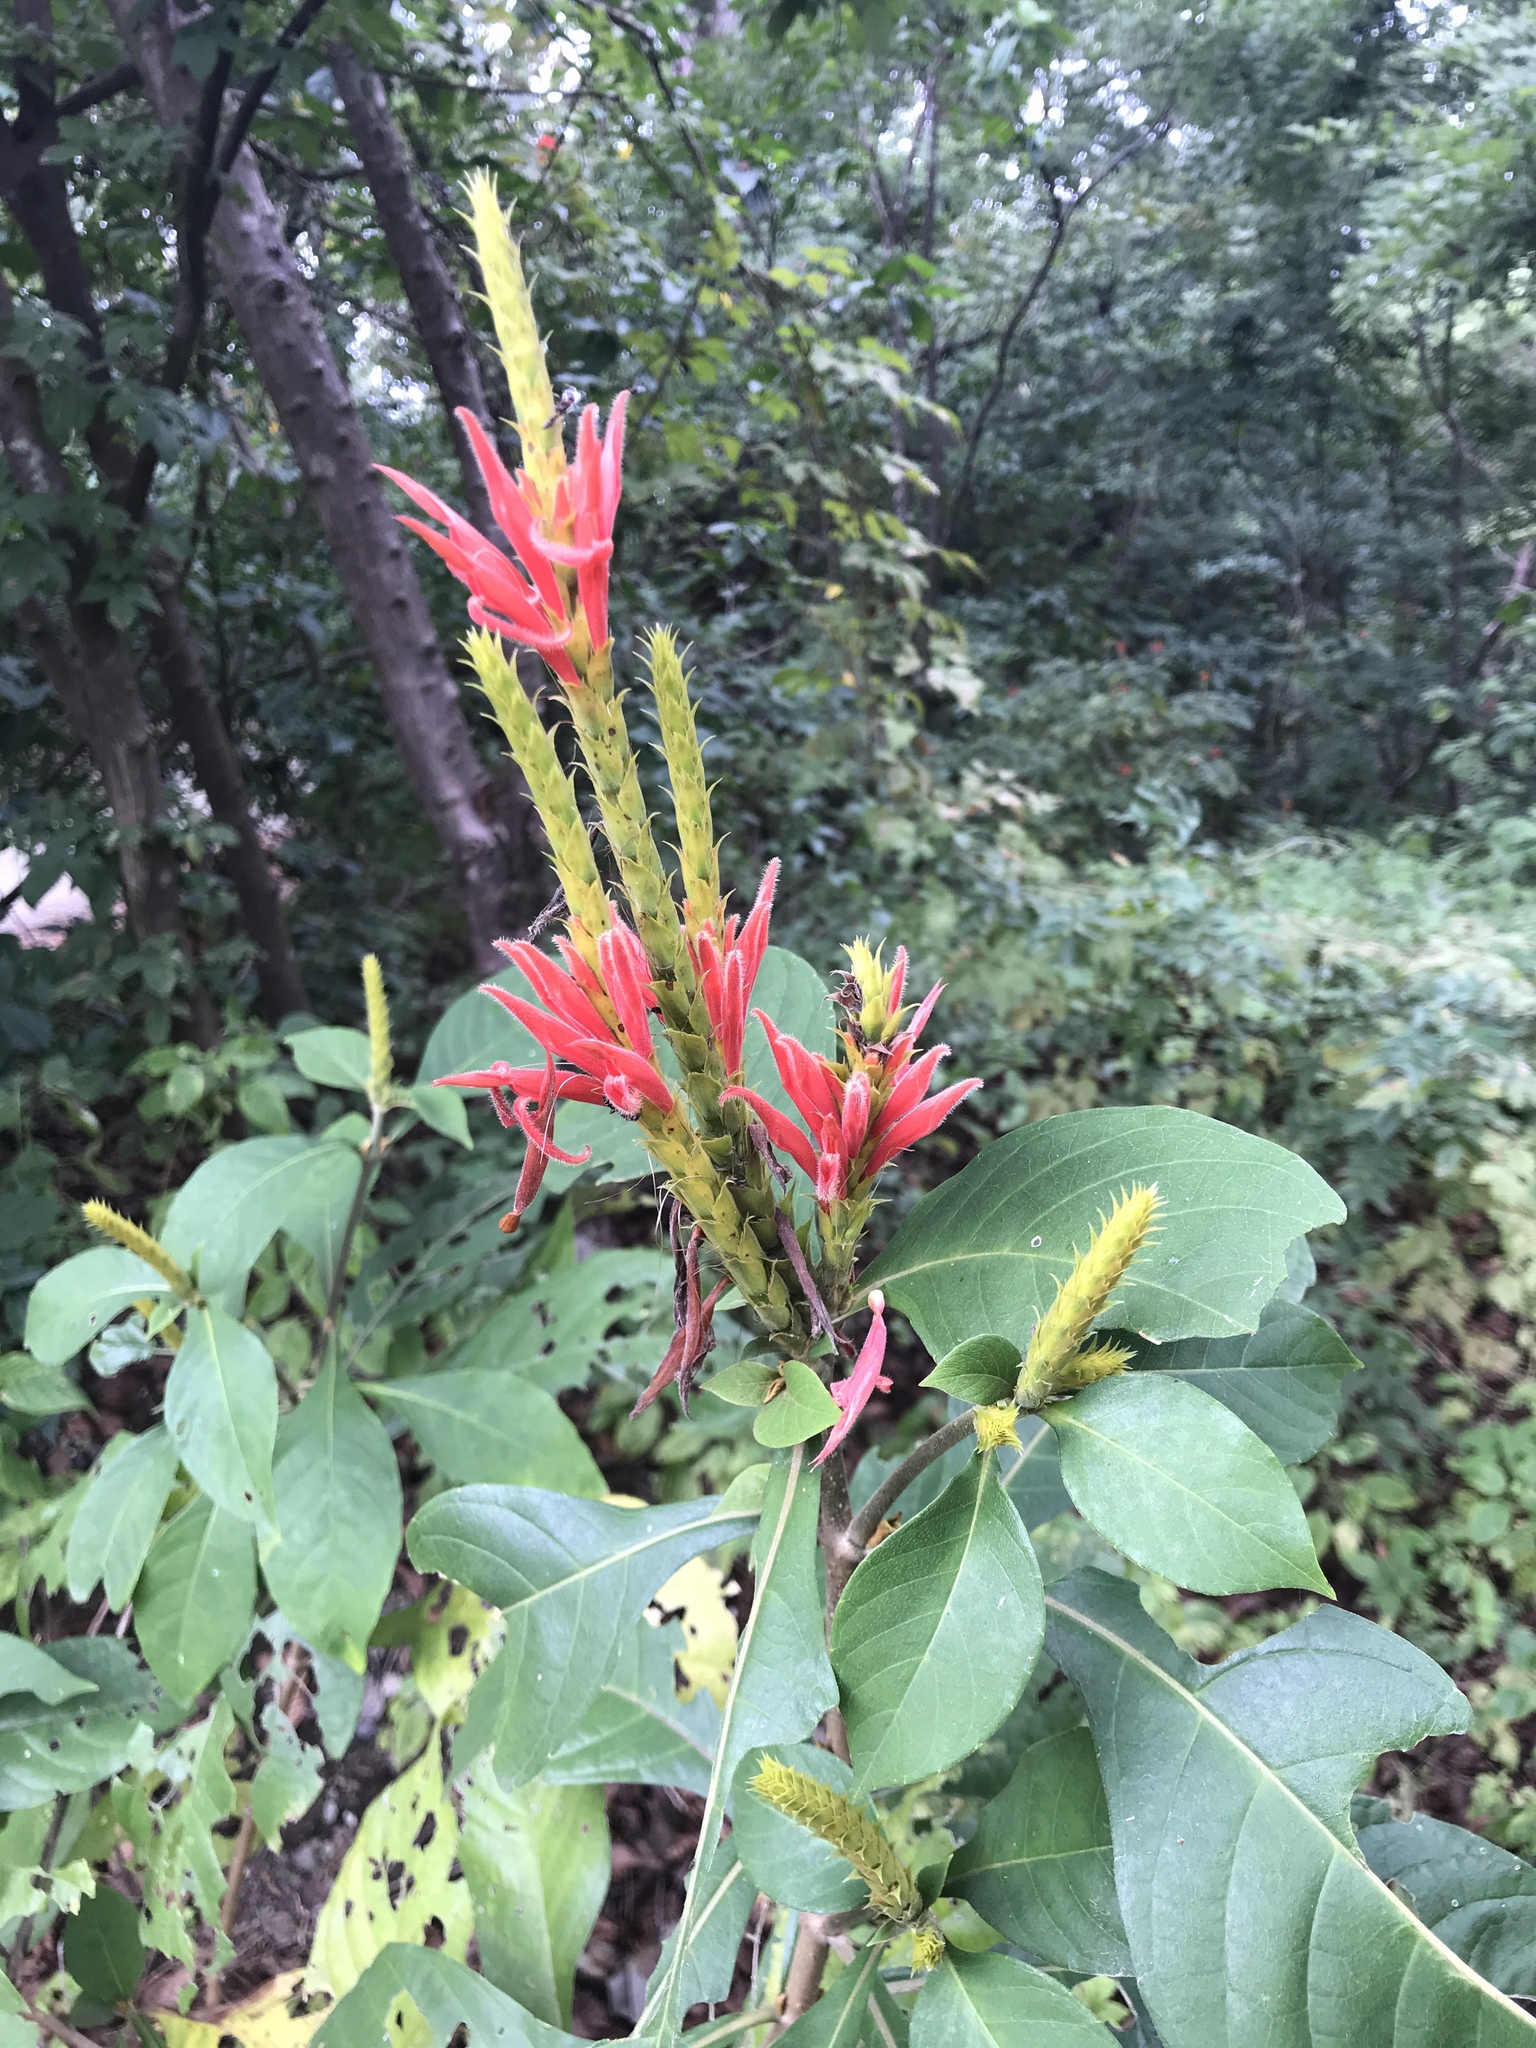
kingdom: Plantae
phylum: Tracheophyta
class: Magnoliopsida
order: Lamiales
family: Acanthaceae
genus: Aphelandra
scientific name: Aphelandra scabra
